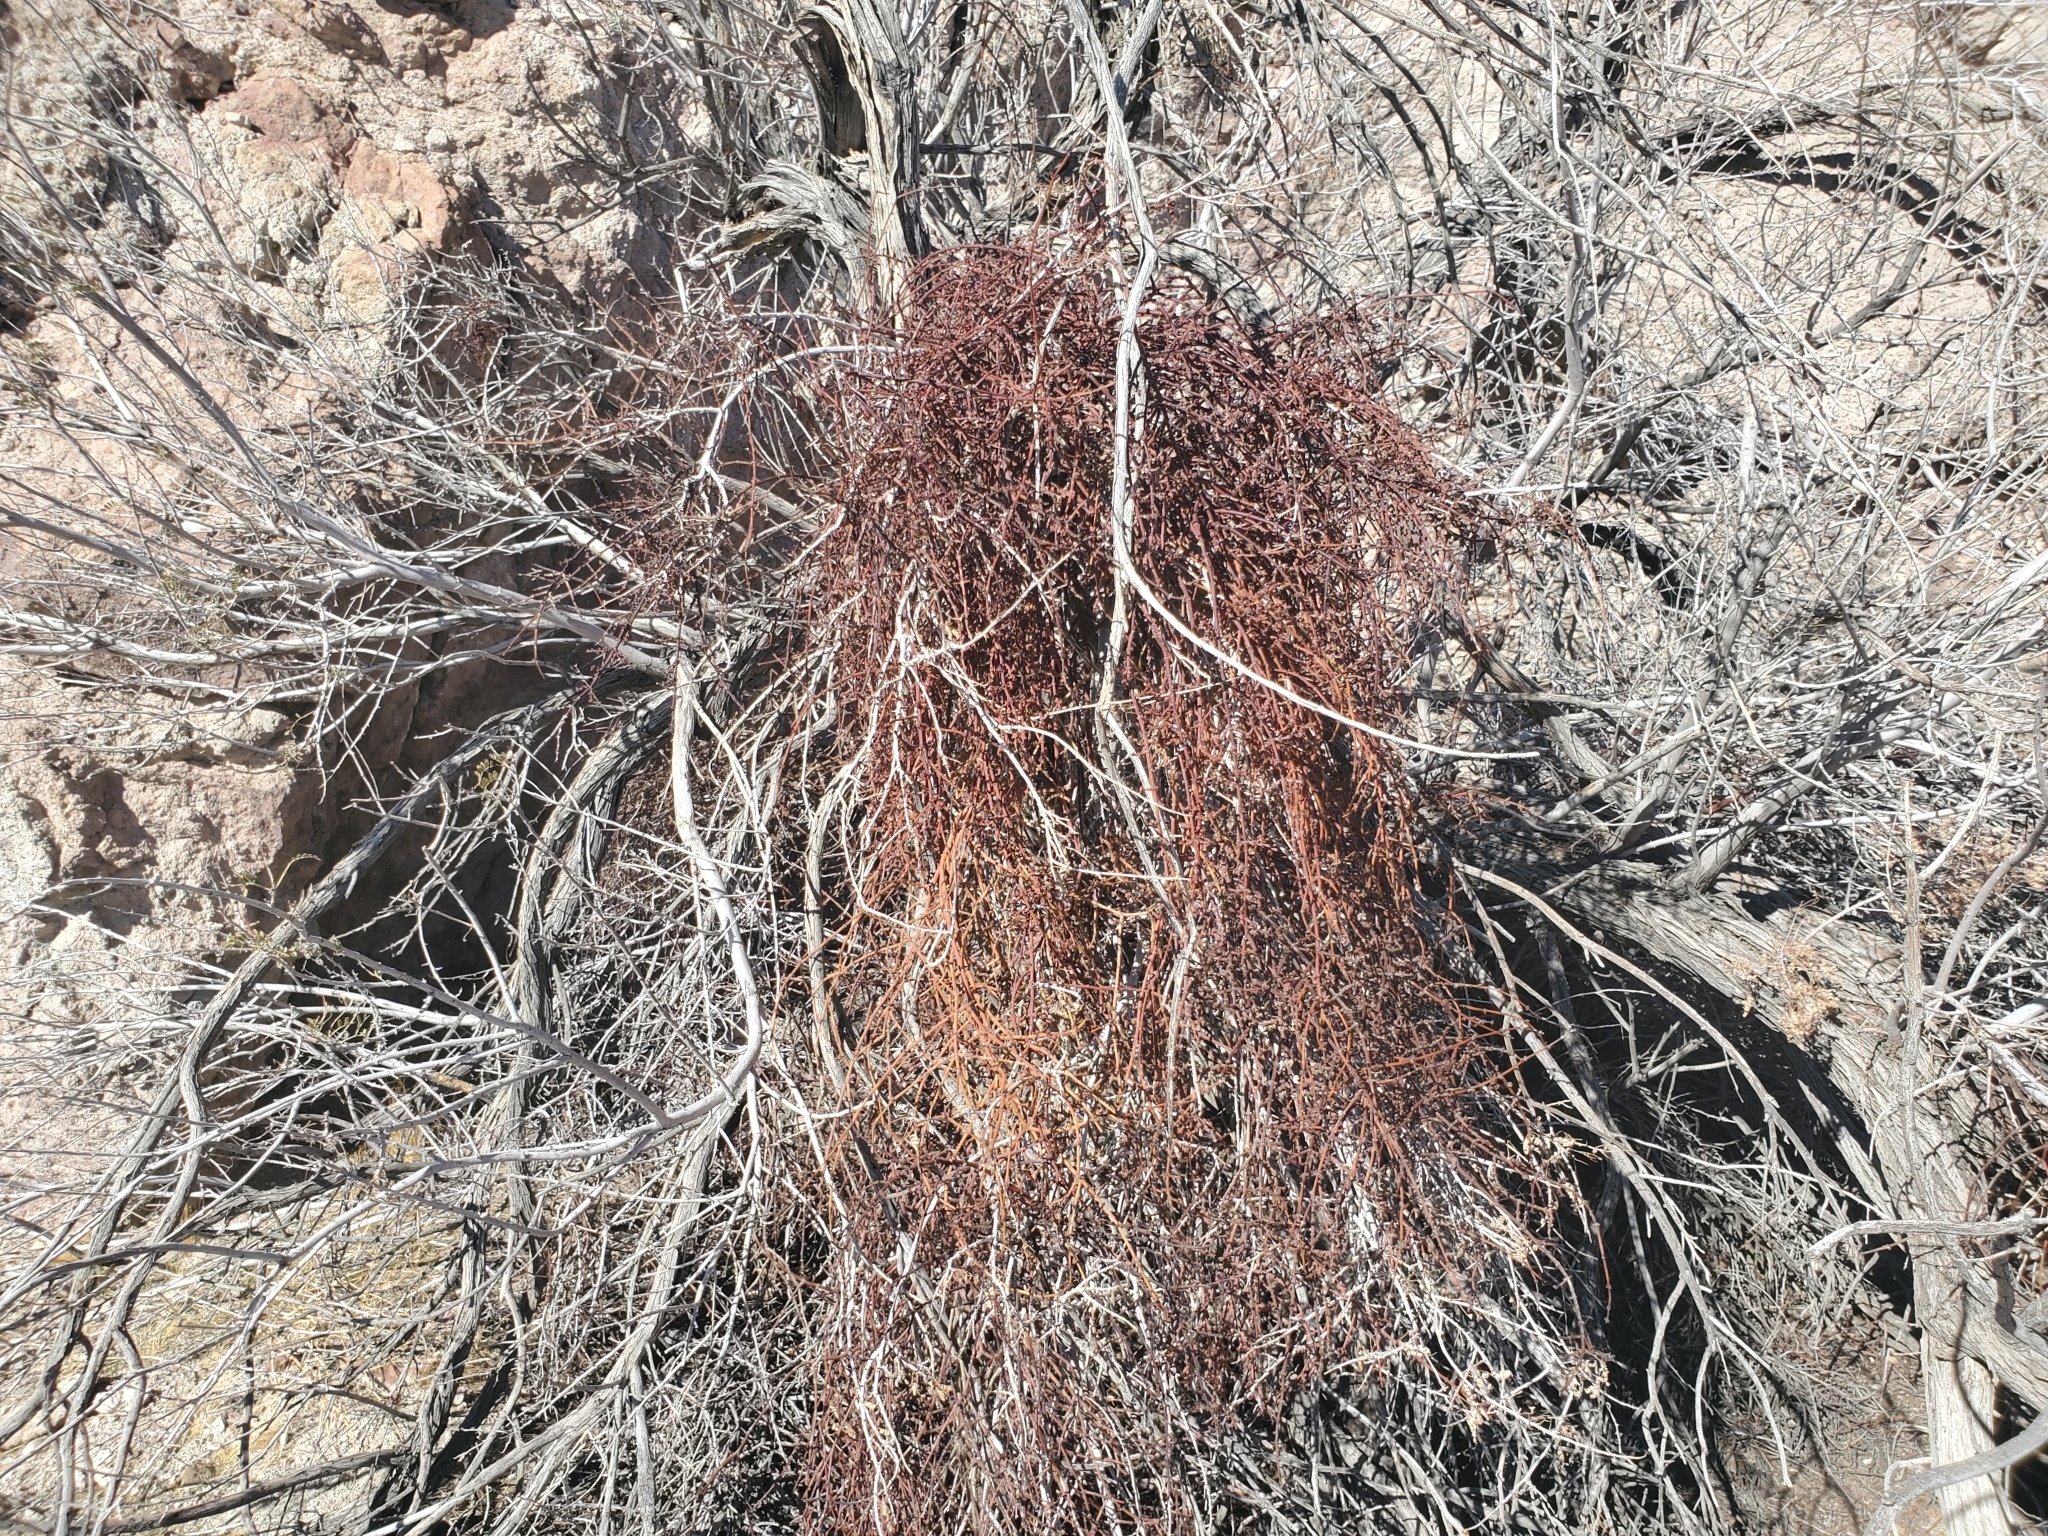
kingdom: Plantae
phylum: Tracheophyta
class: Magnoliopsida
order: Santalales
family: Viscaceae
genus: Phoradendron
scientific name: Phoradendron californicum
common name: Acacia mistletoe
